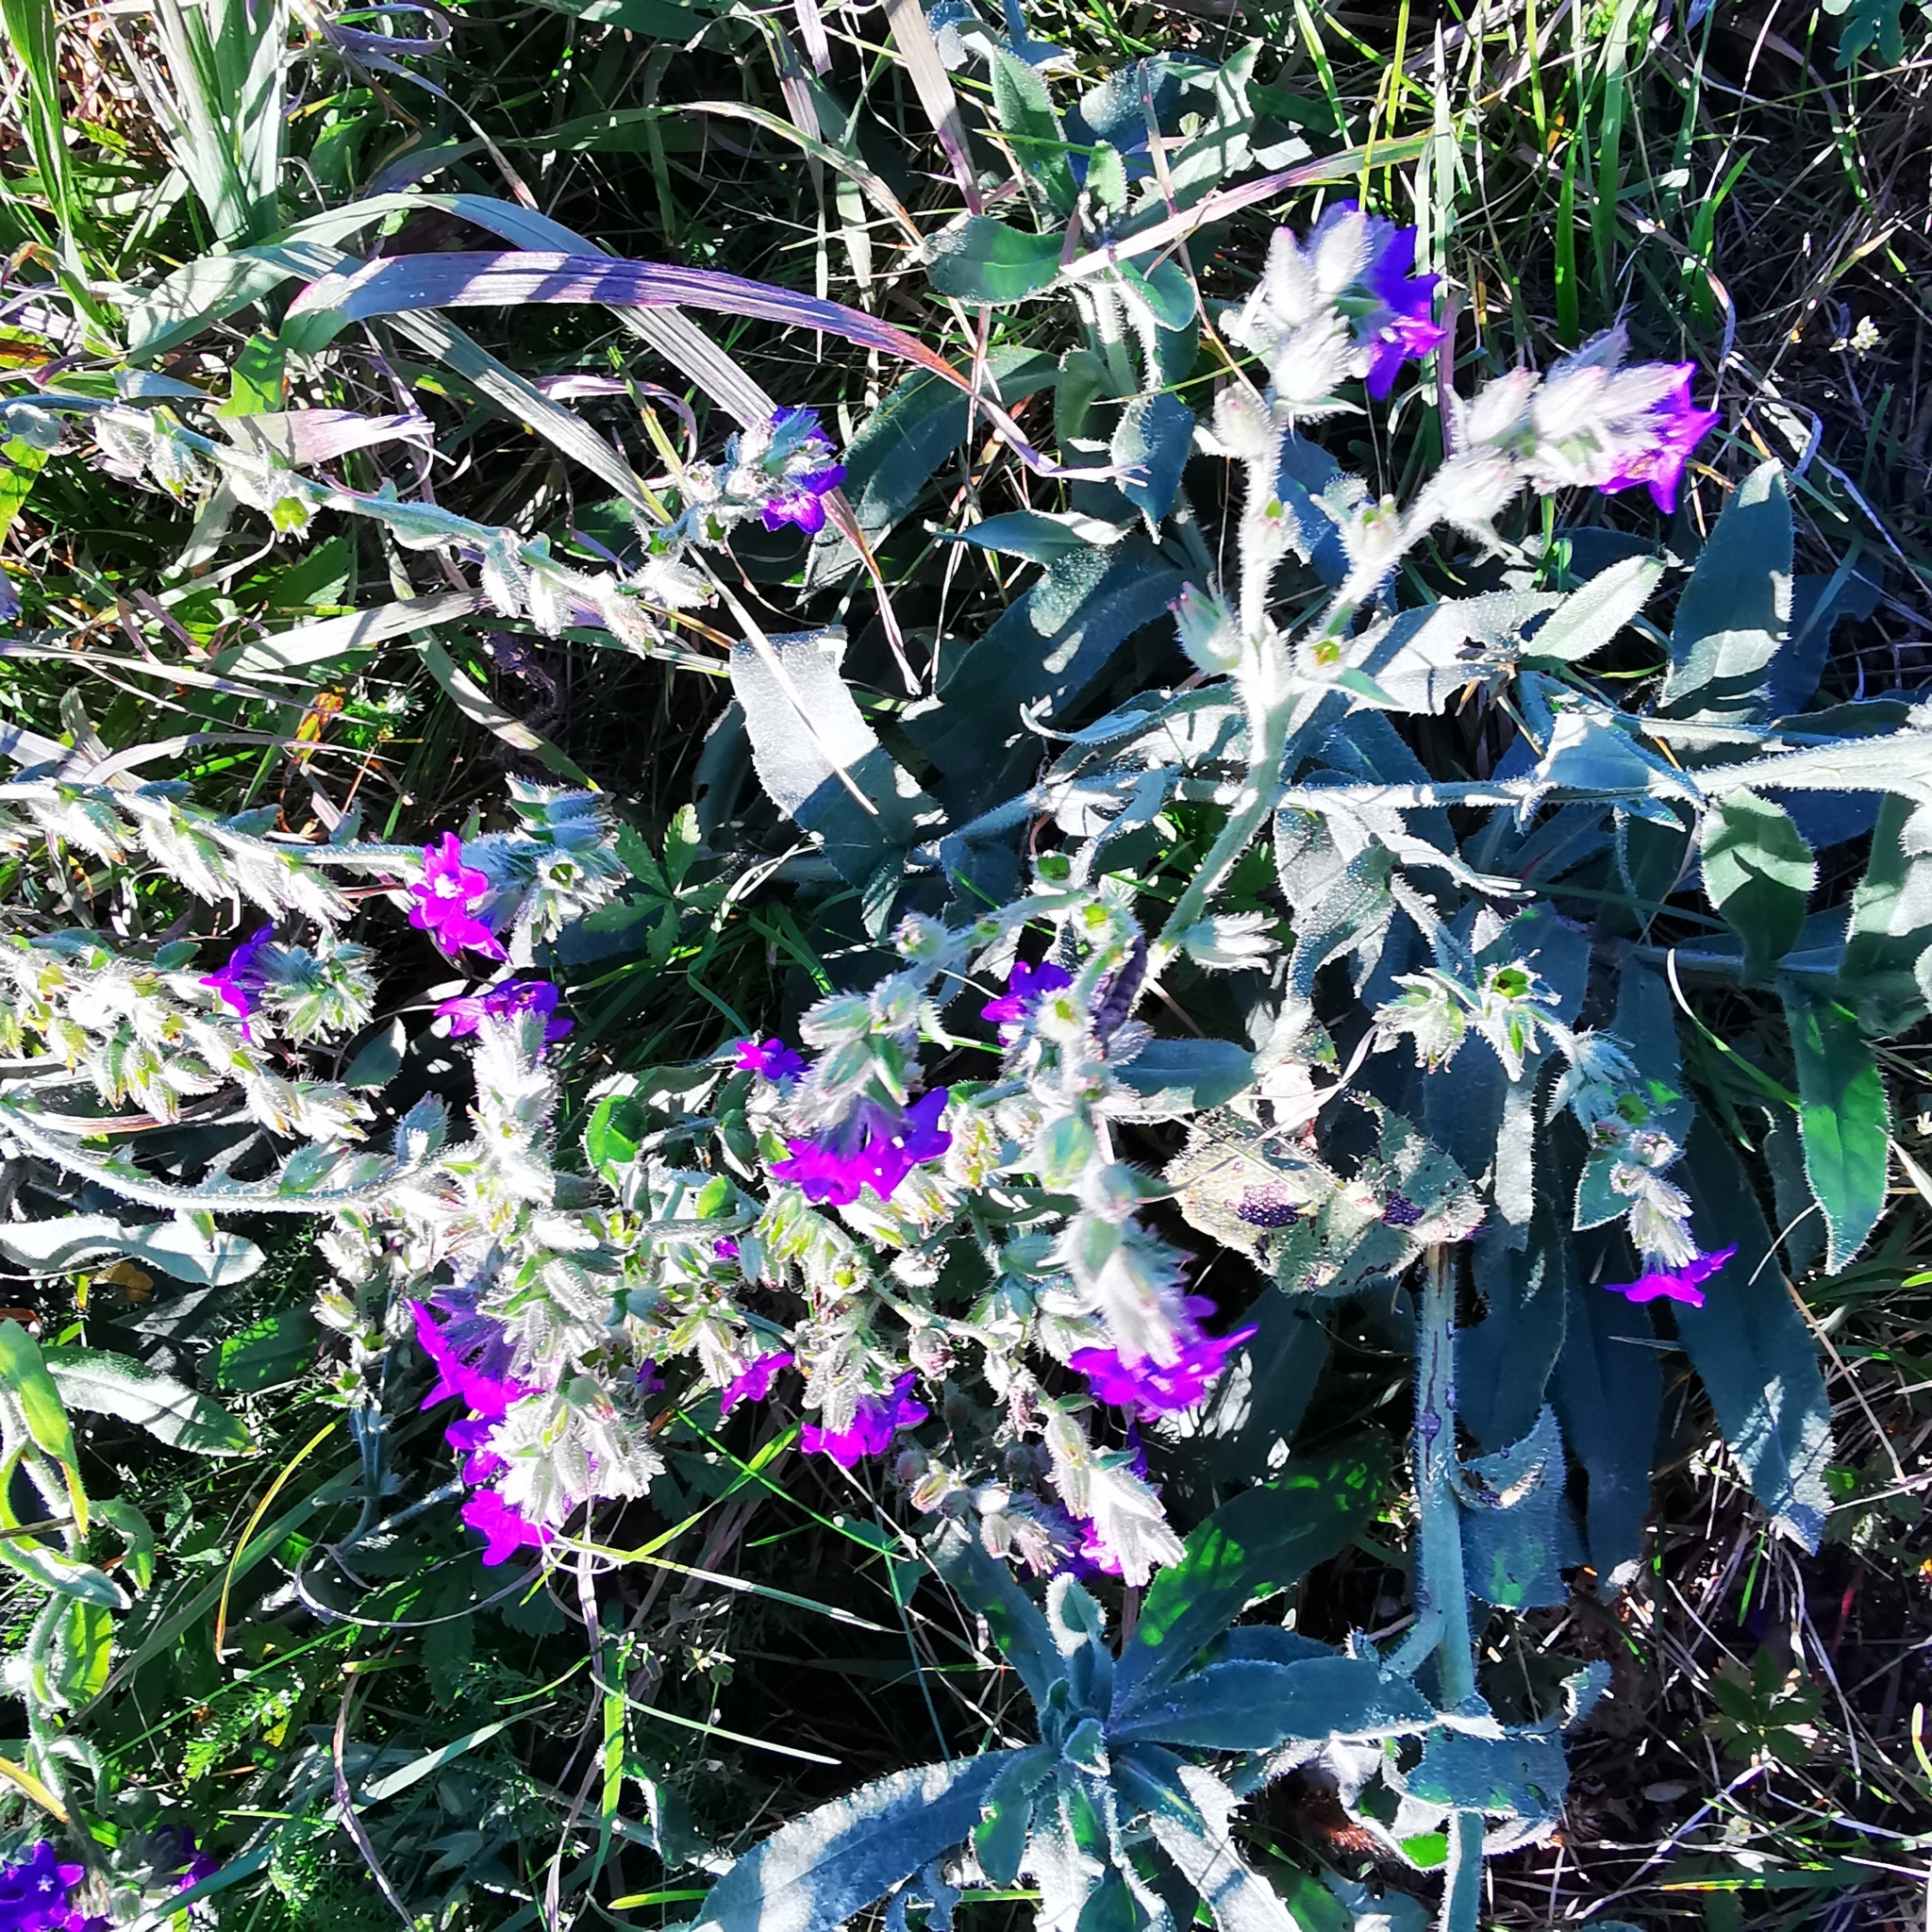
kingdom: Plantae
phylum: Tracheophyta
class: Magnoliopsida
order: Boraginales
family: Boraginaceae
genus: Anchusa
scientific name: Anchusa officinalis
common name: Alkanet
